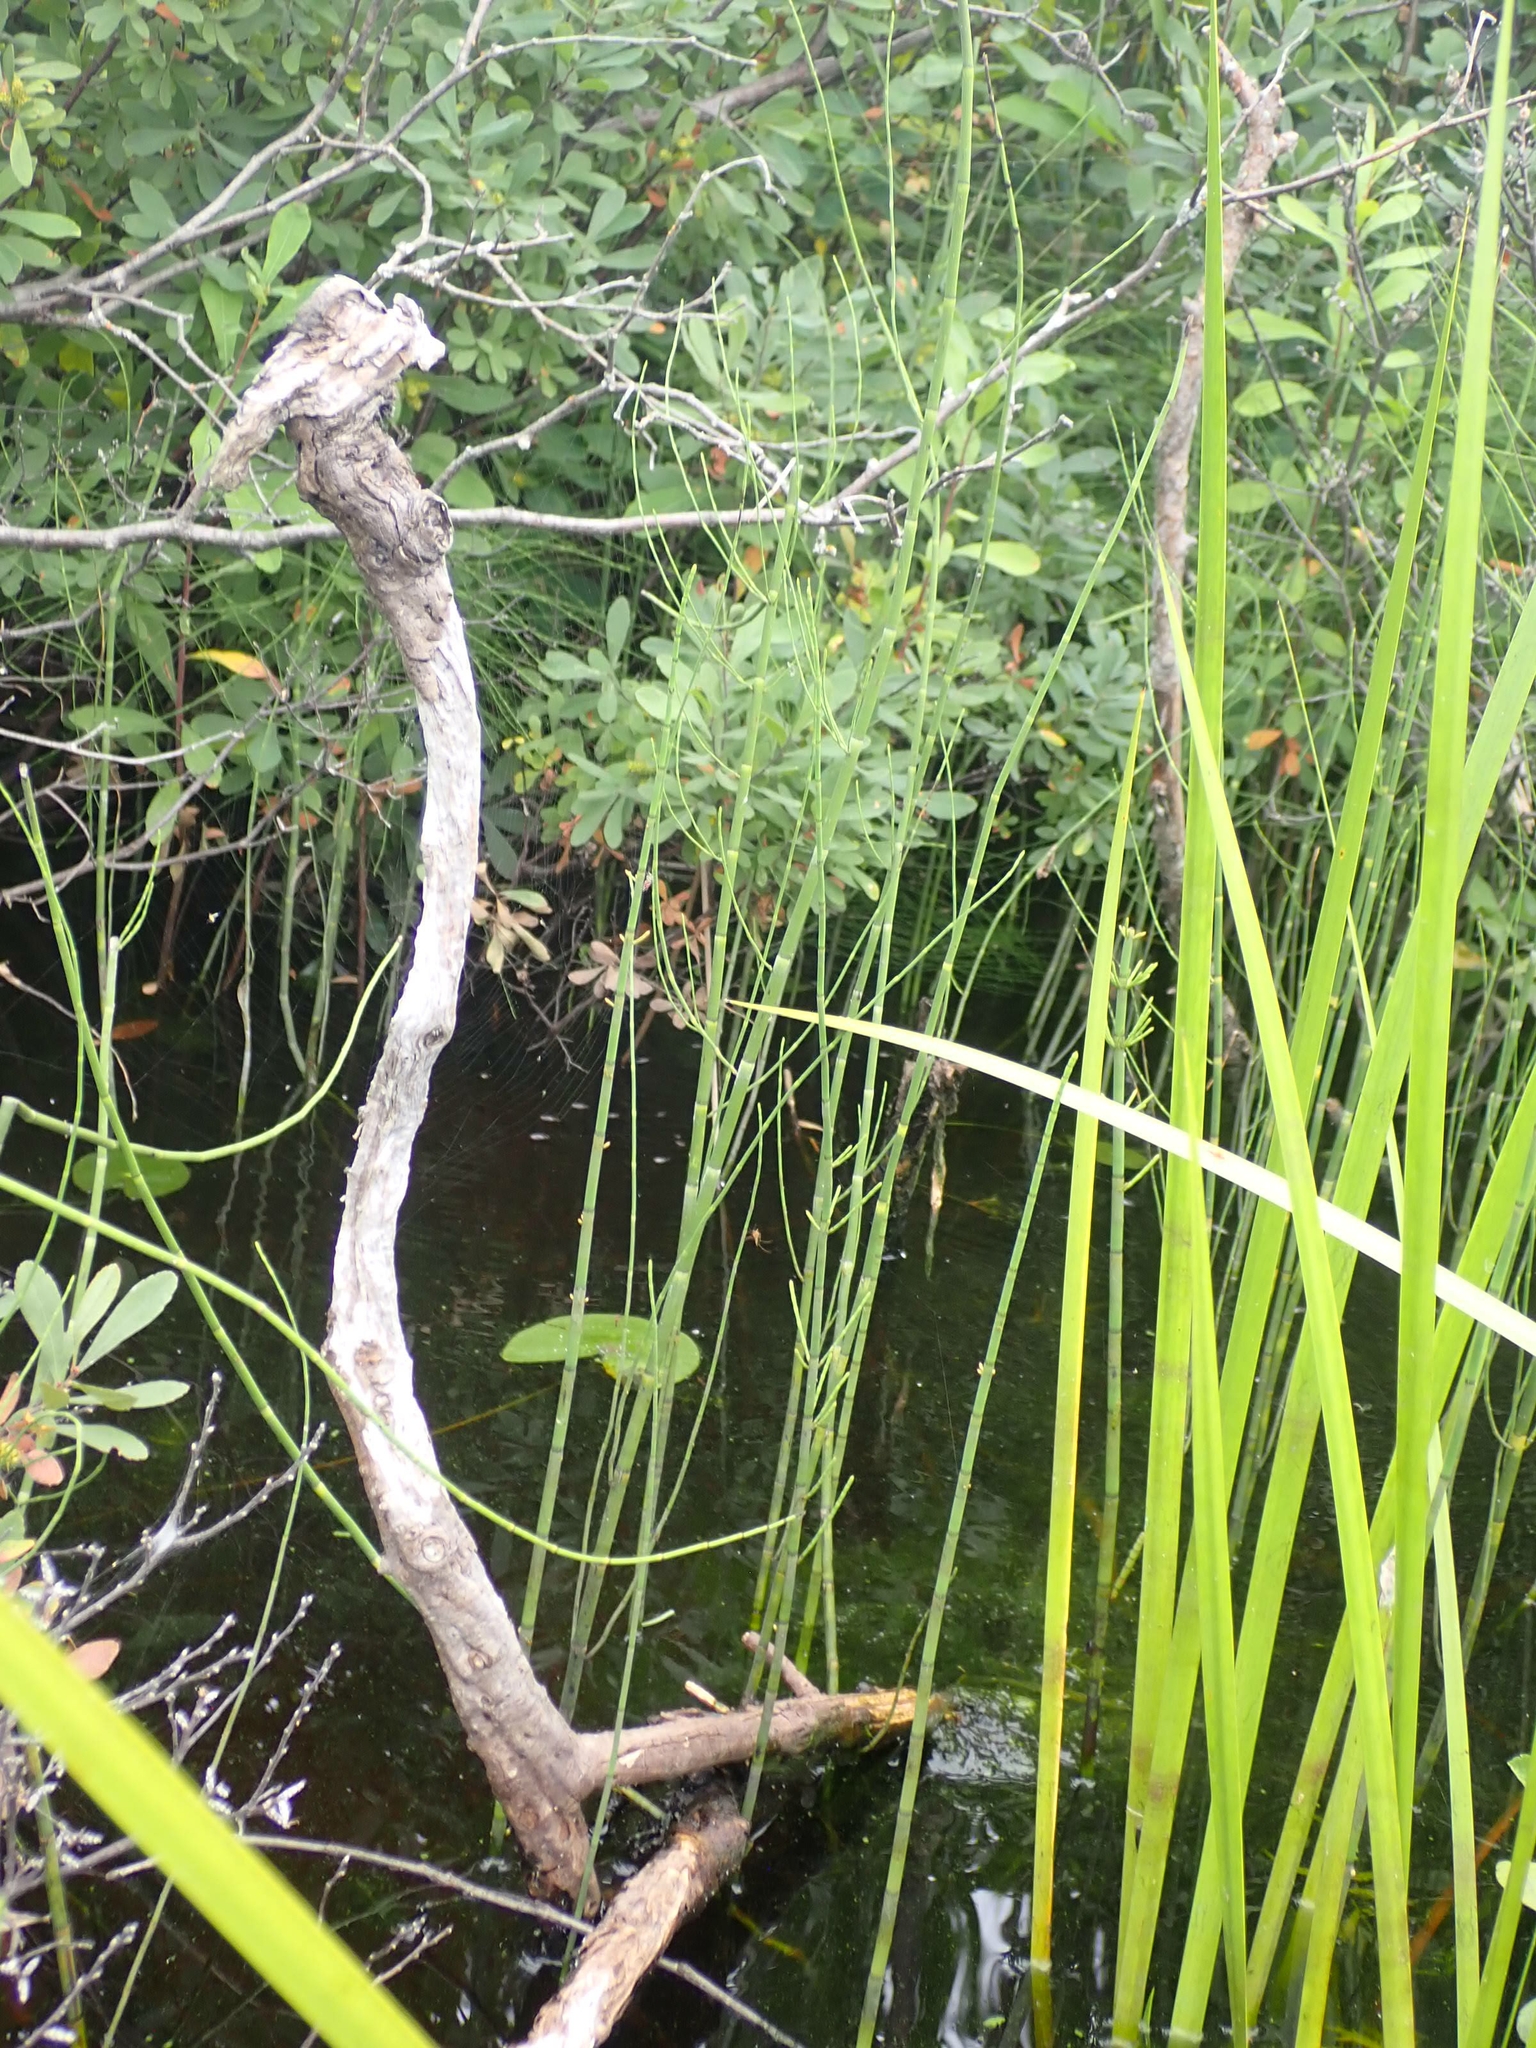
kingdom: Plantae
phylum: Tracheophyta
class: Polypodiopsida
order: Equisetales
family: Equisetaceae
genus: Equisetum
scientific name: Equisetum fluviatile
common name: Water horsetail
